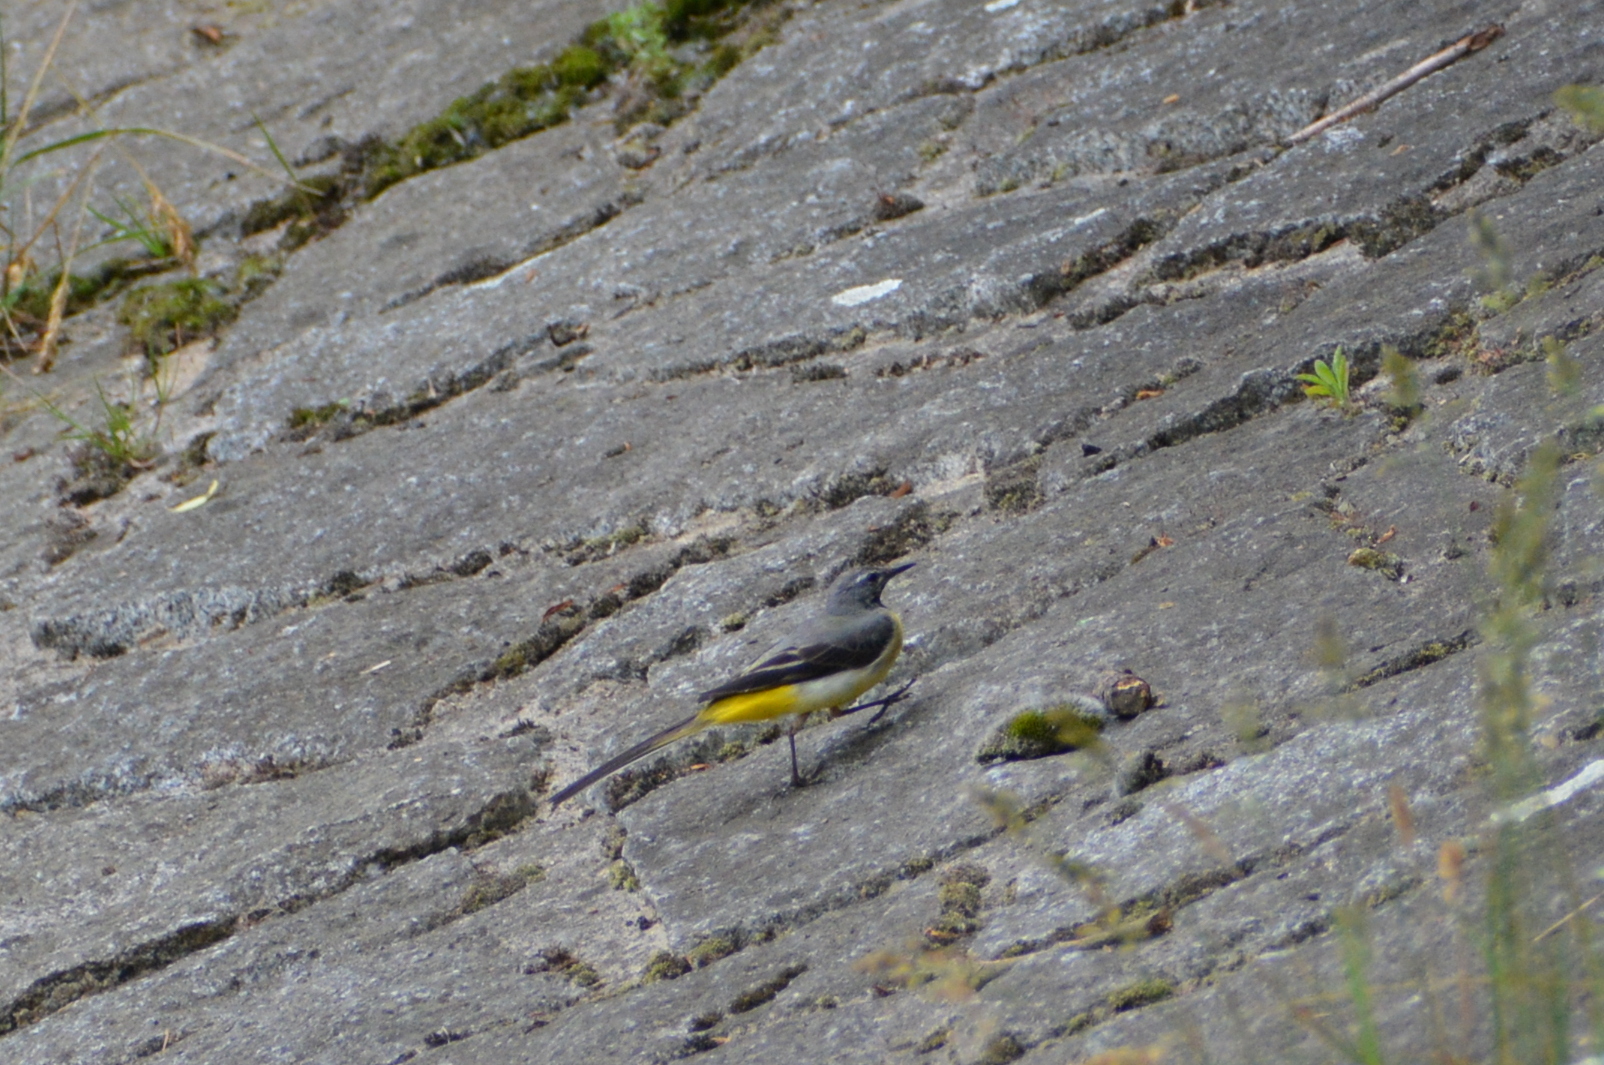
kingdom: Animalia
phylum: Chordata
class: Aves
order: Passeriformes
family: Motacillidae
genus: Motacilla
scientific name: Motacilla cinerea
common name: Grey wagtail
